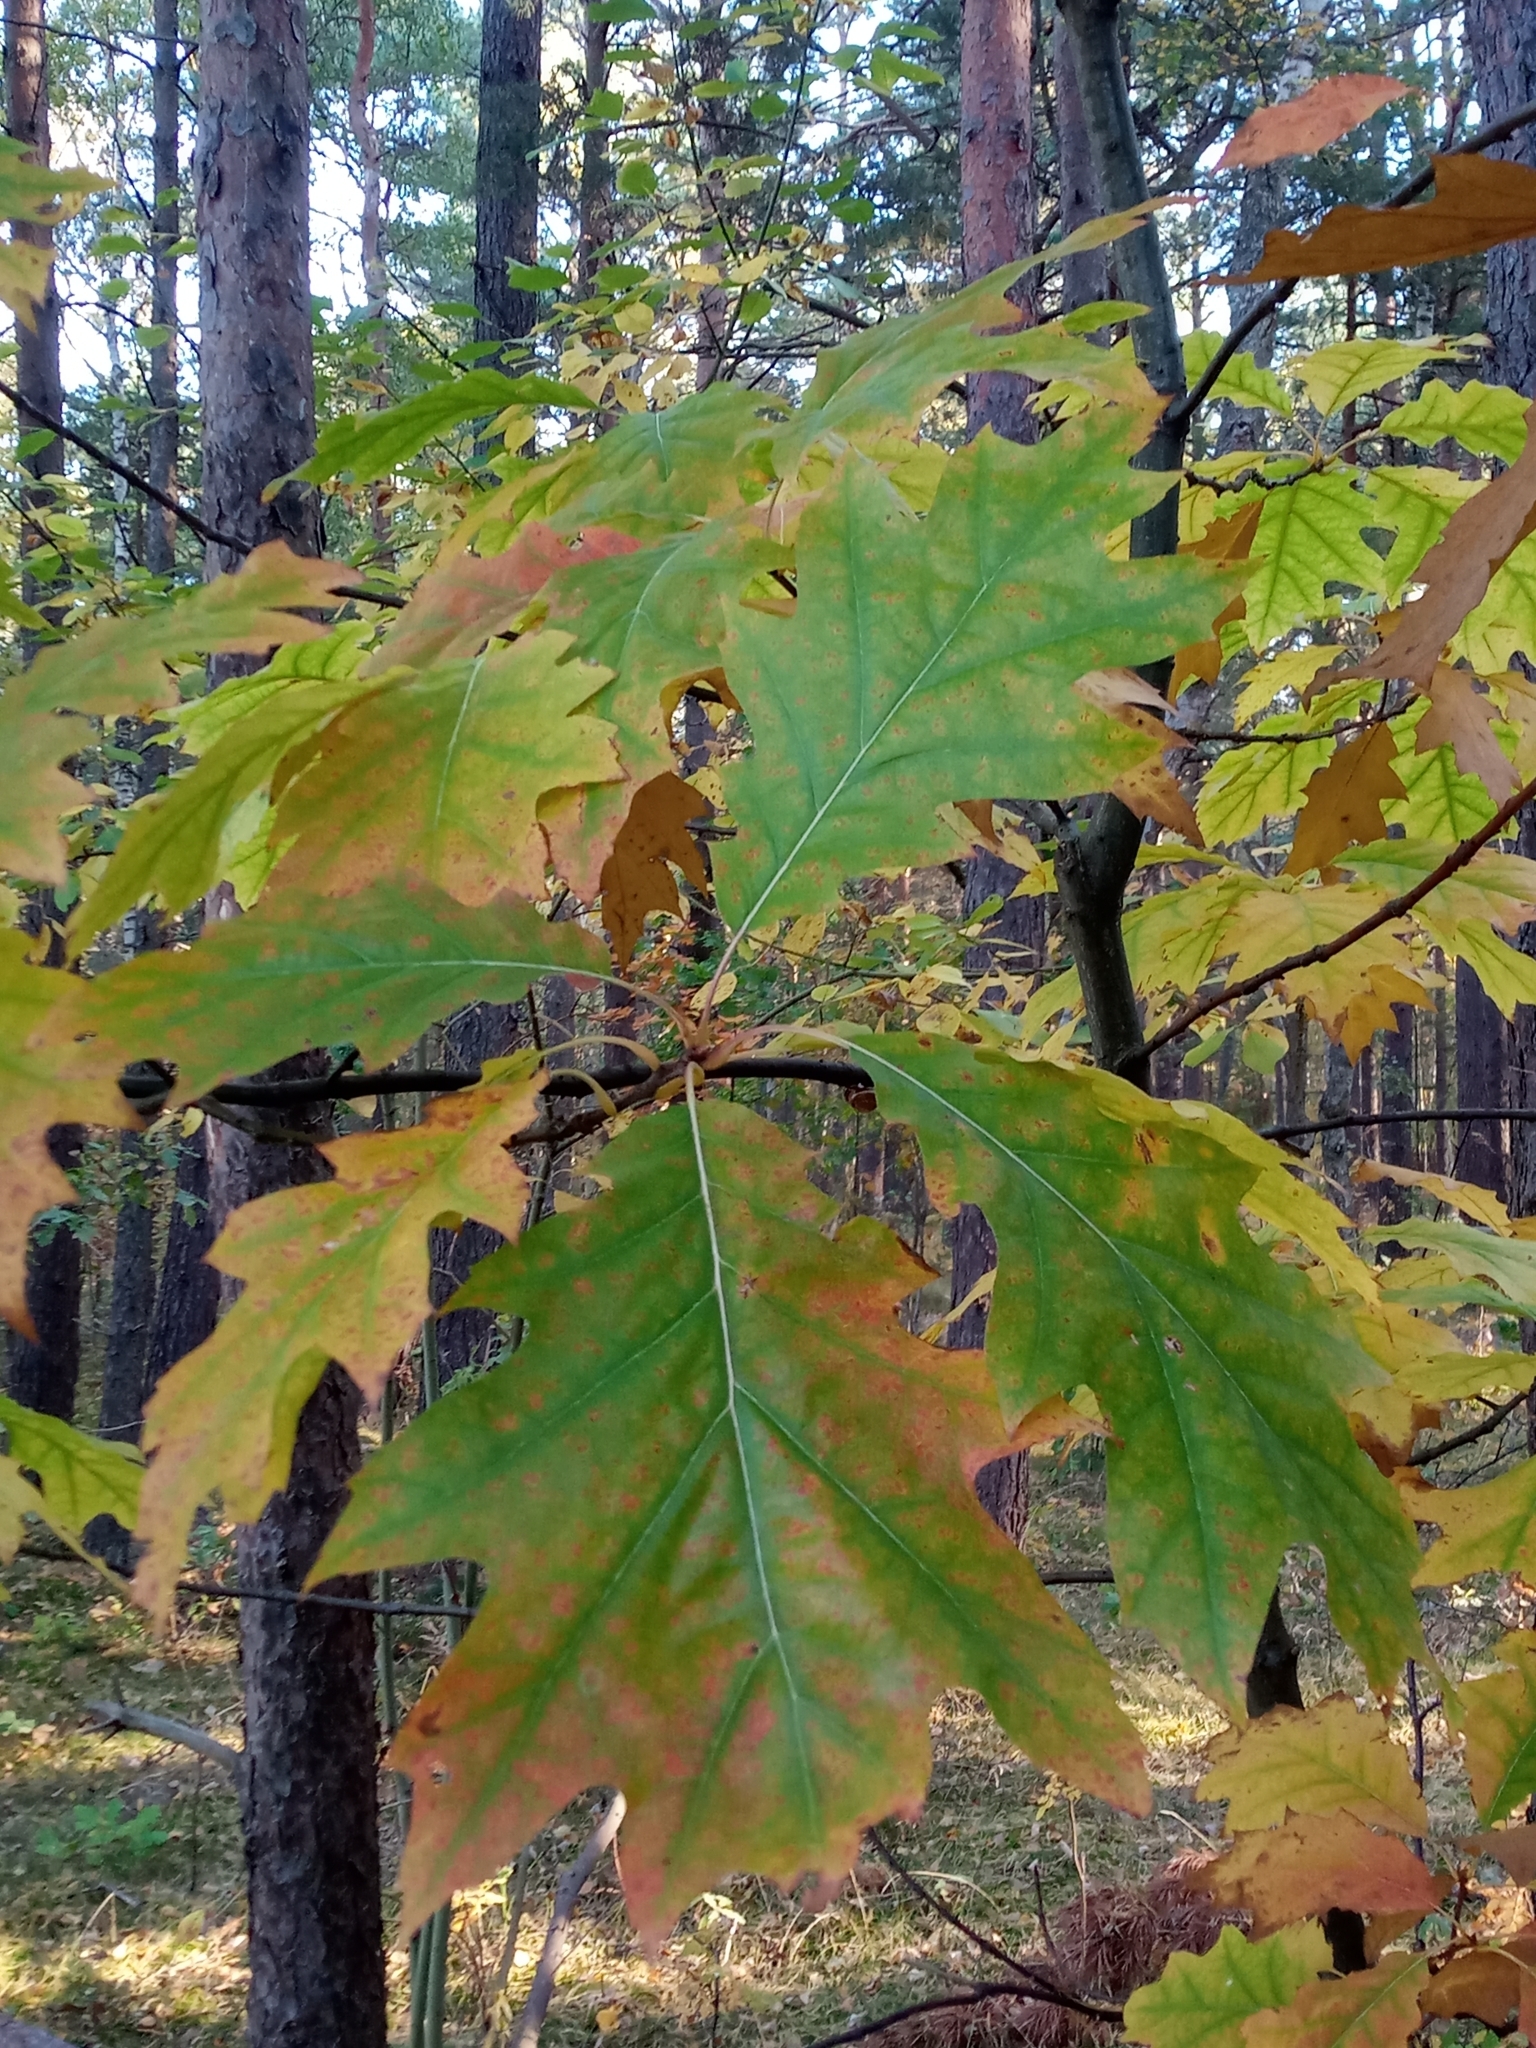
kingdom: Plantae
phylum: Tracheophyta
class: Magnoliopsida
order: Fagales
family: Fagaceae
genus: Quercus
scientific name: Quercus rubra
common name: Red oak
